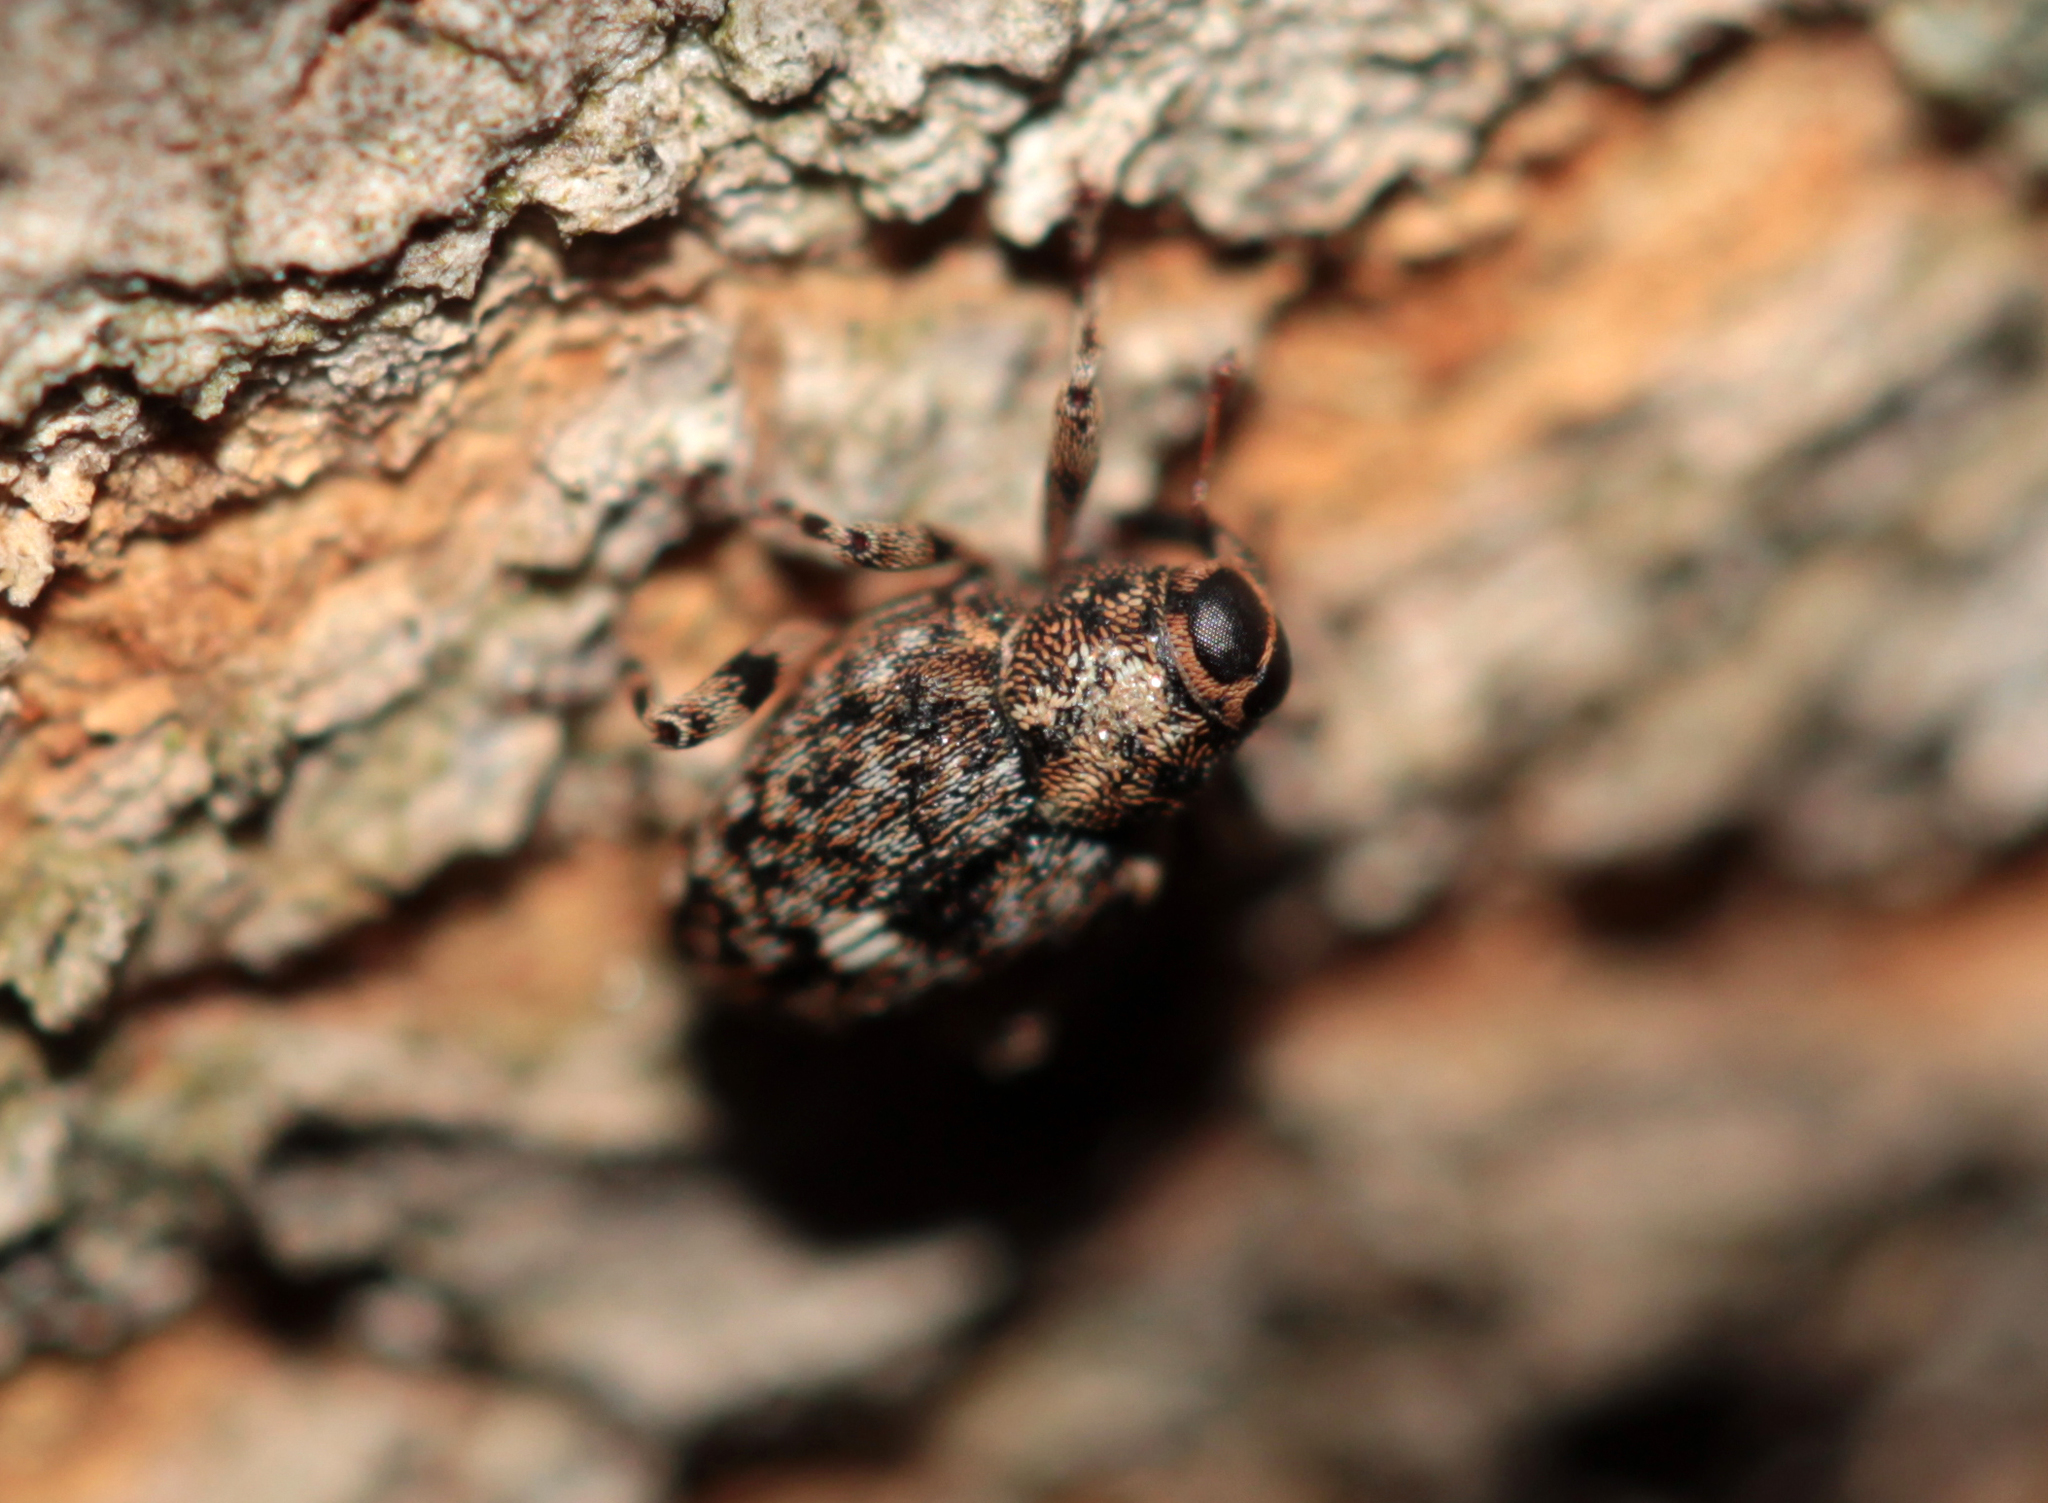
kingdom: Animalia
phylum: Arthropoda
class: Insecta
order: Coleoptera
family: Curculionidae
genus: Lechriops
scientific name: Lechriops oculatus
